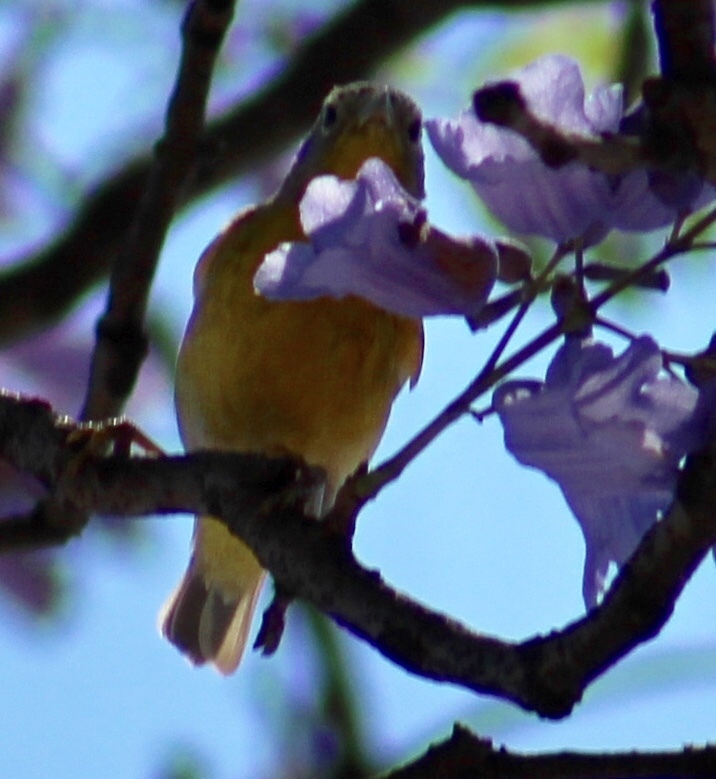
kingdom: Animalia
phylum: Chordata
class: Aves
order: Passeriformes
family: Parulidae
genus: Leiothlypis
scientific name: Leiothlypis ruficapilla
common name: Nashville warbler
